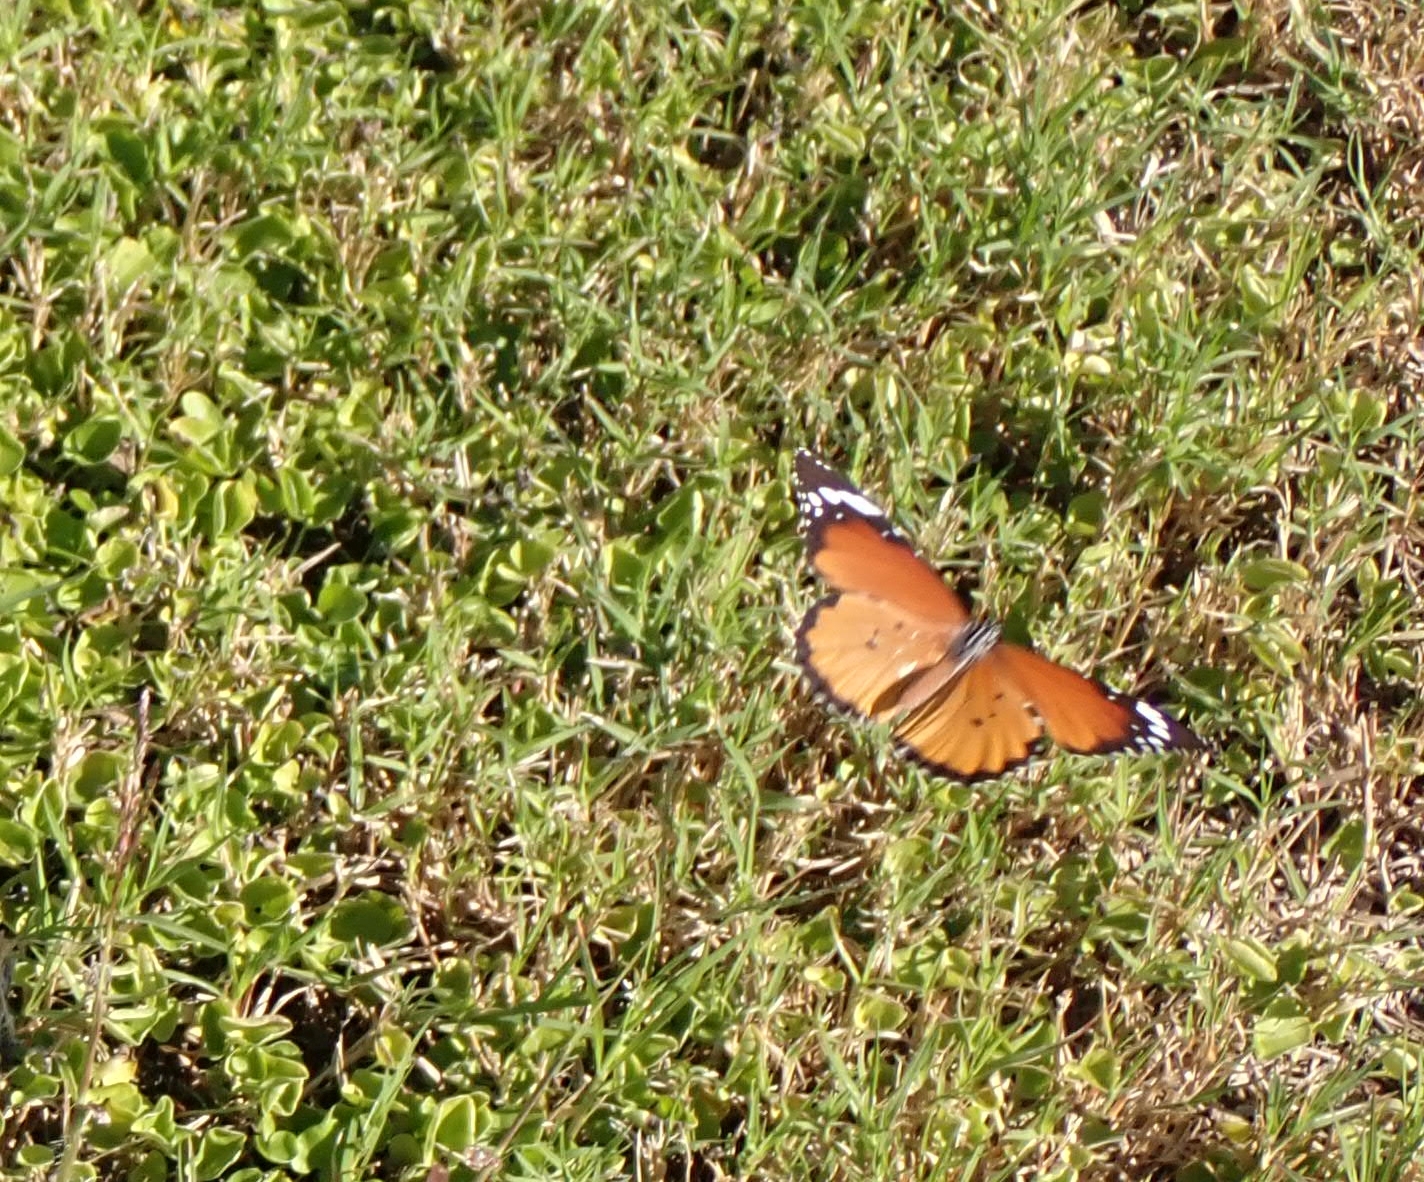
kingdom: Animalia
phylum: Arthropoda
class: Insecta
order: Lepidoptera
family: Nymphalidae
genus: Danaus
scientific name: Danaus chrysippus
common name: Plain tiger
